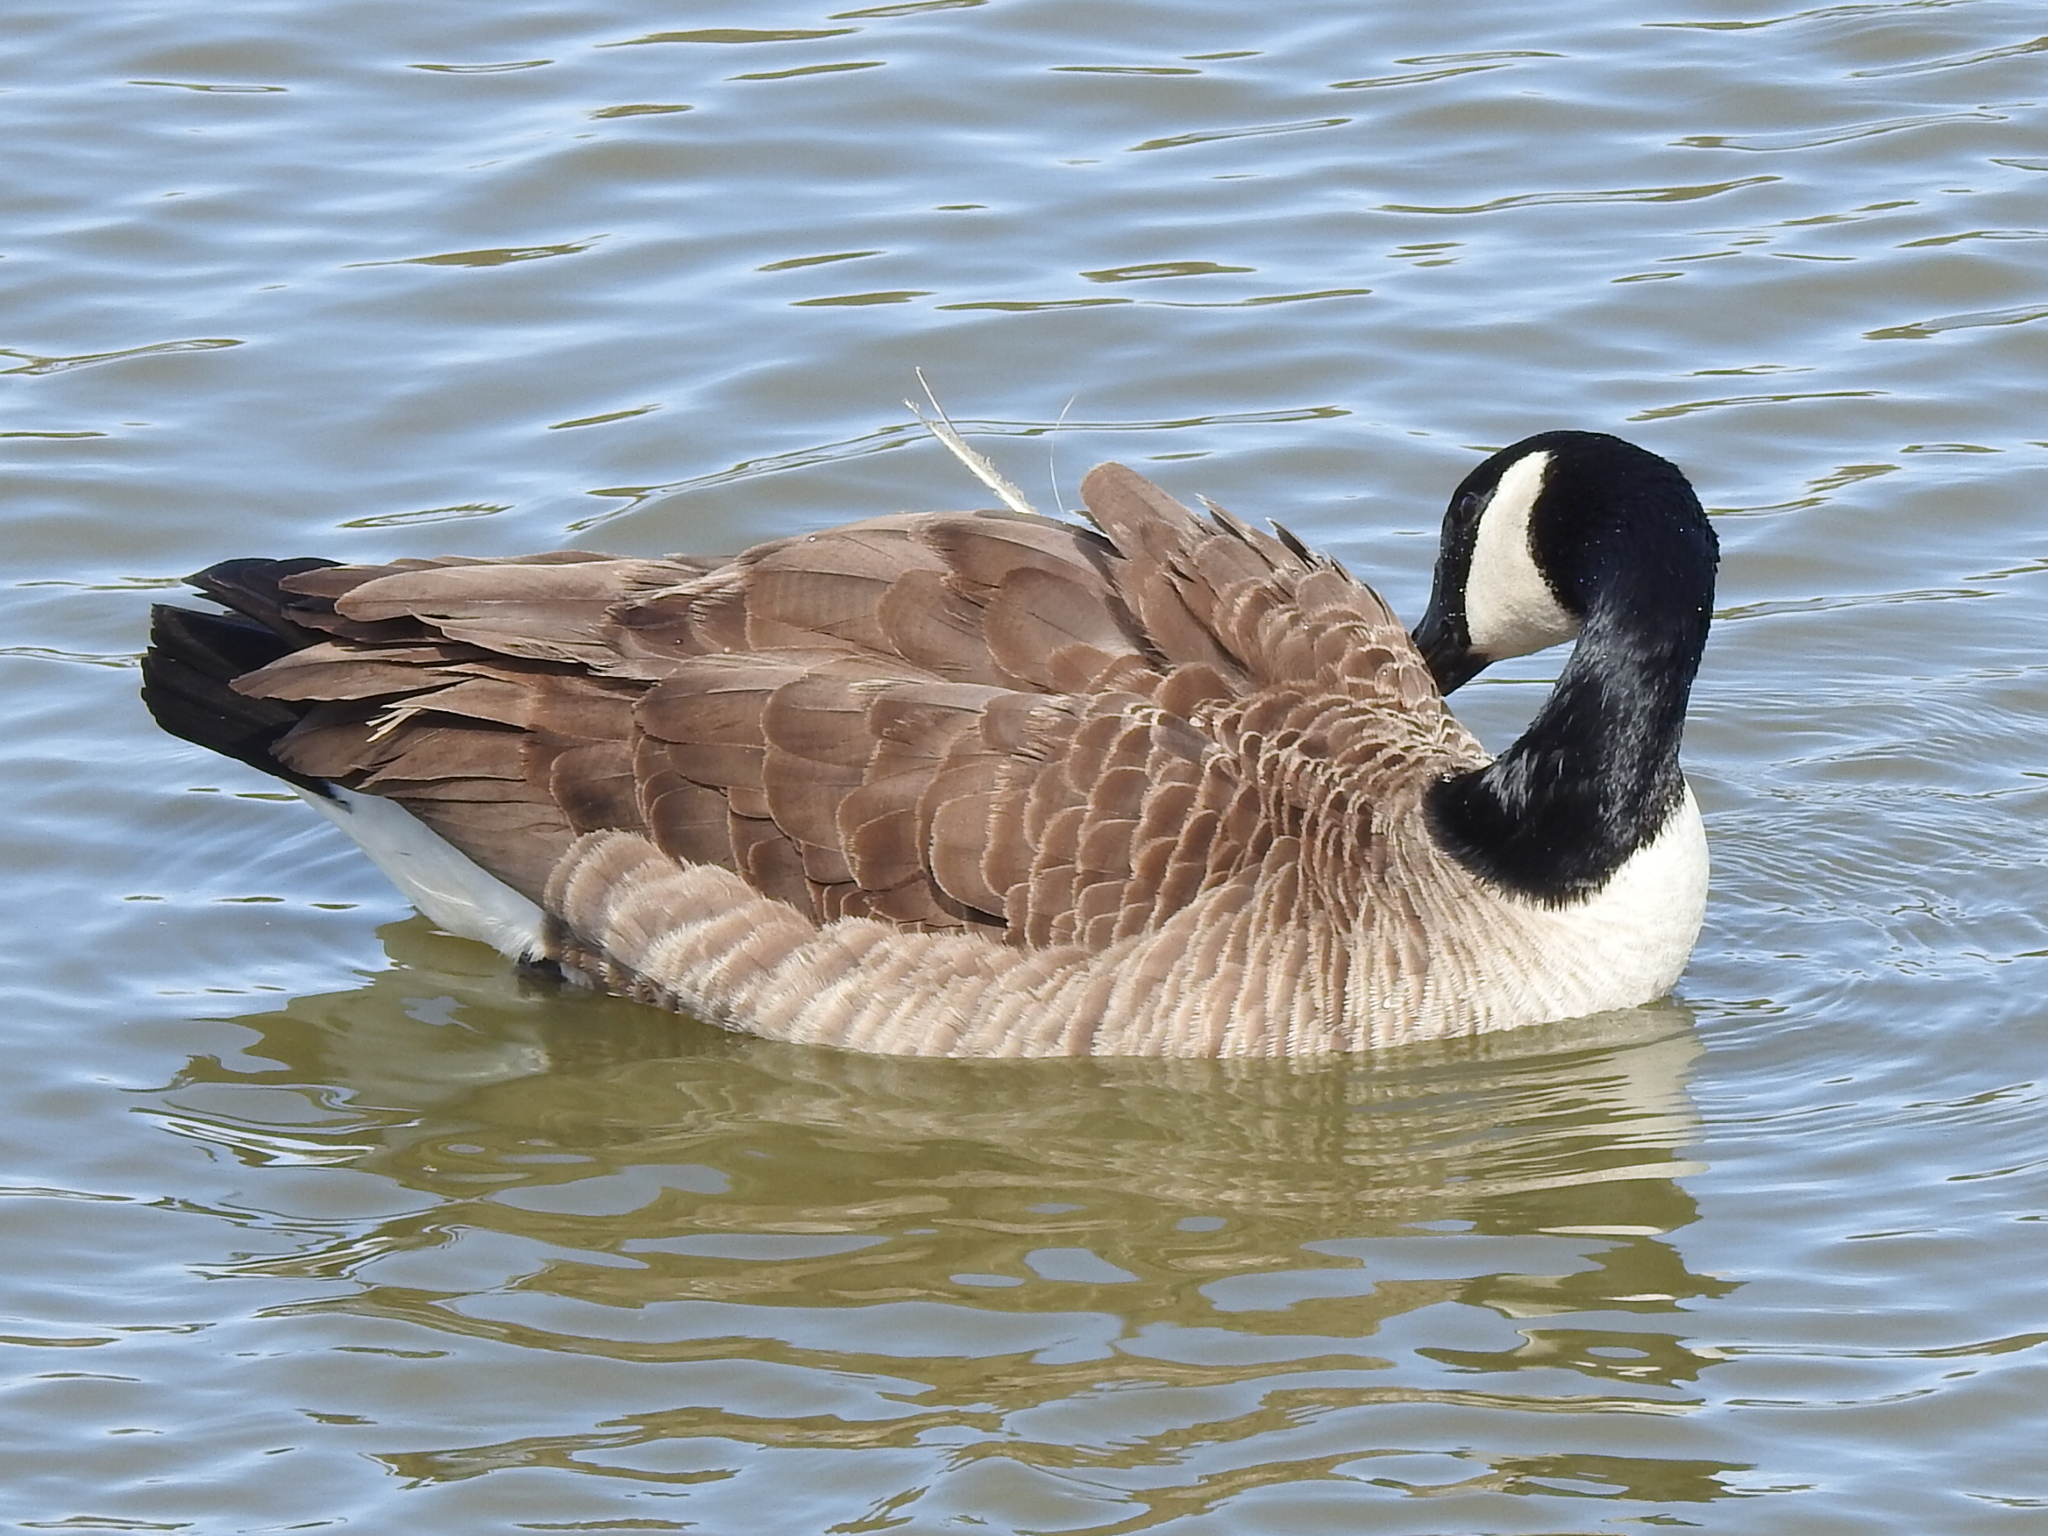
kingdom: Animalia
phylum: Chordata
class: Aves
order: Anseriformes
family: Anatidae
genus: Branta
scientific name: Branta canadensis
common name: Canada goose
